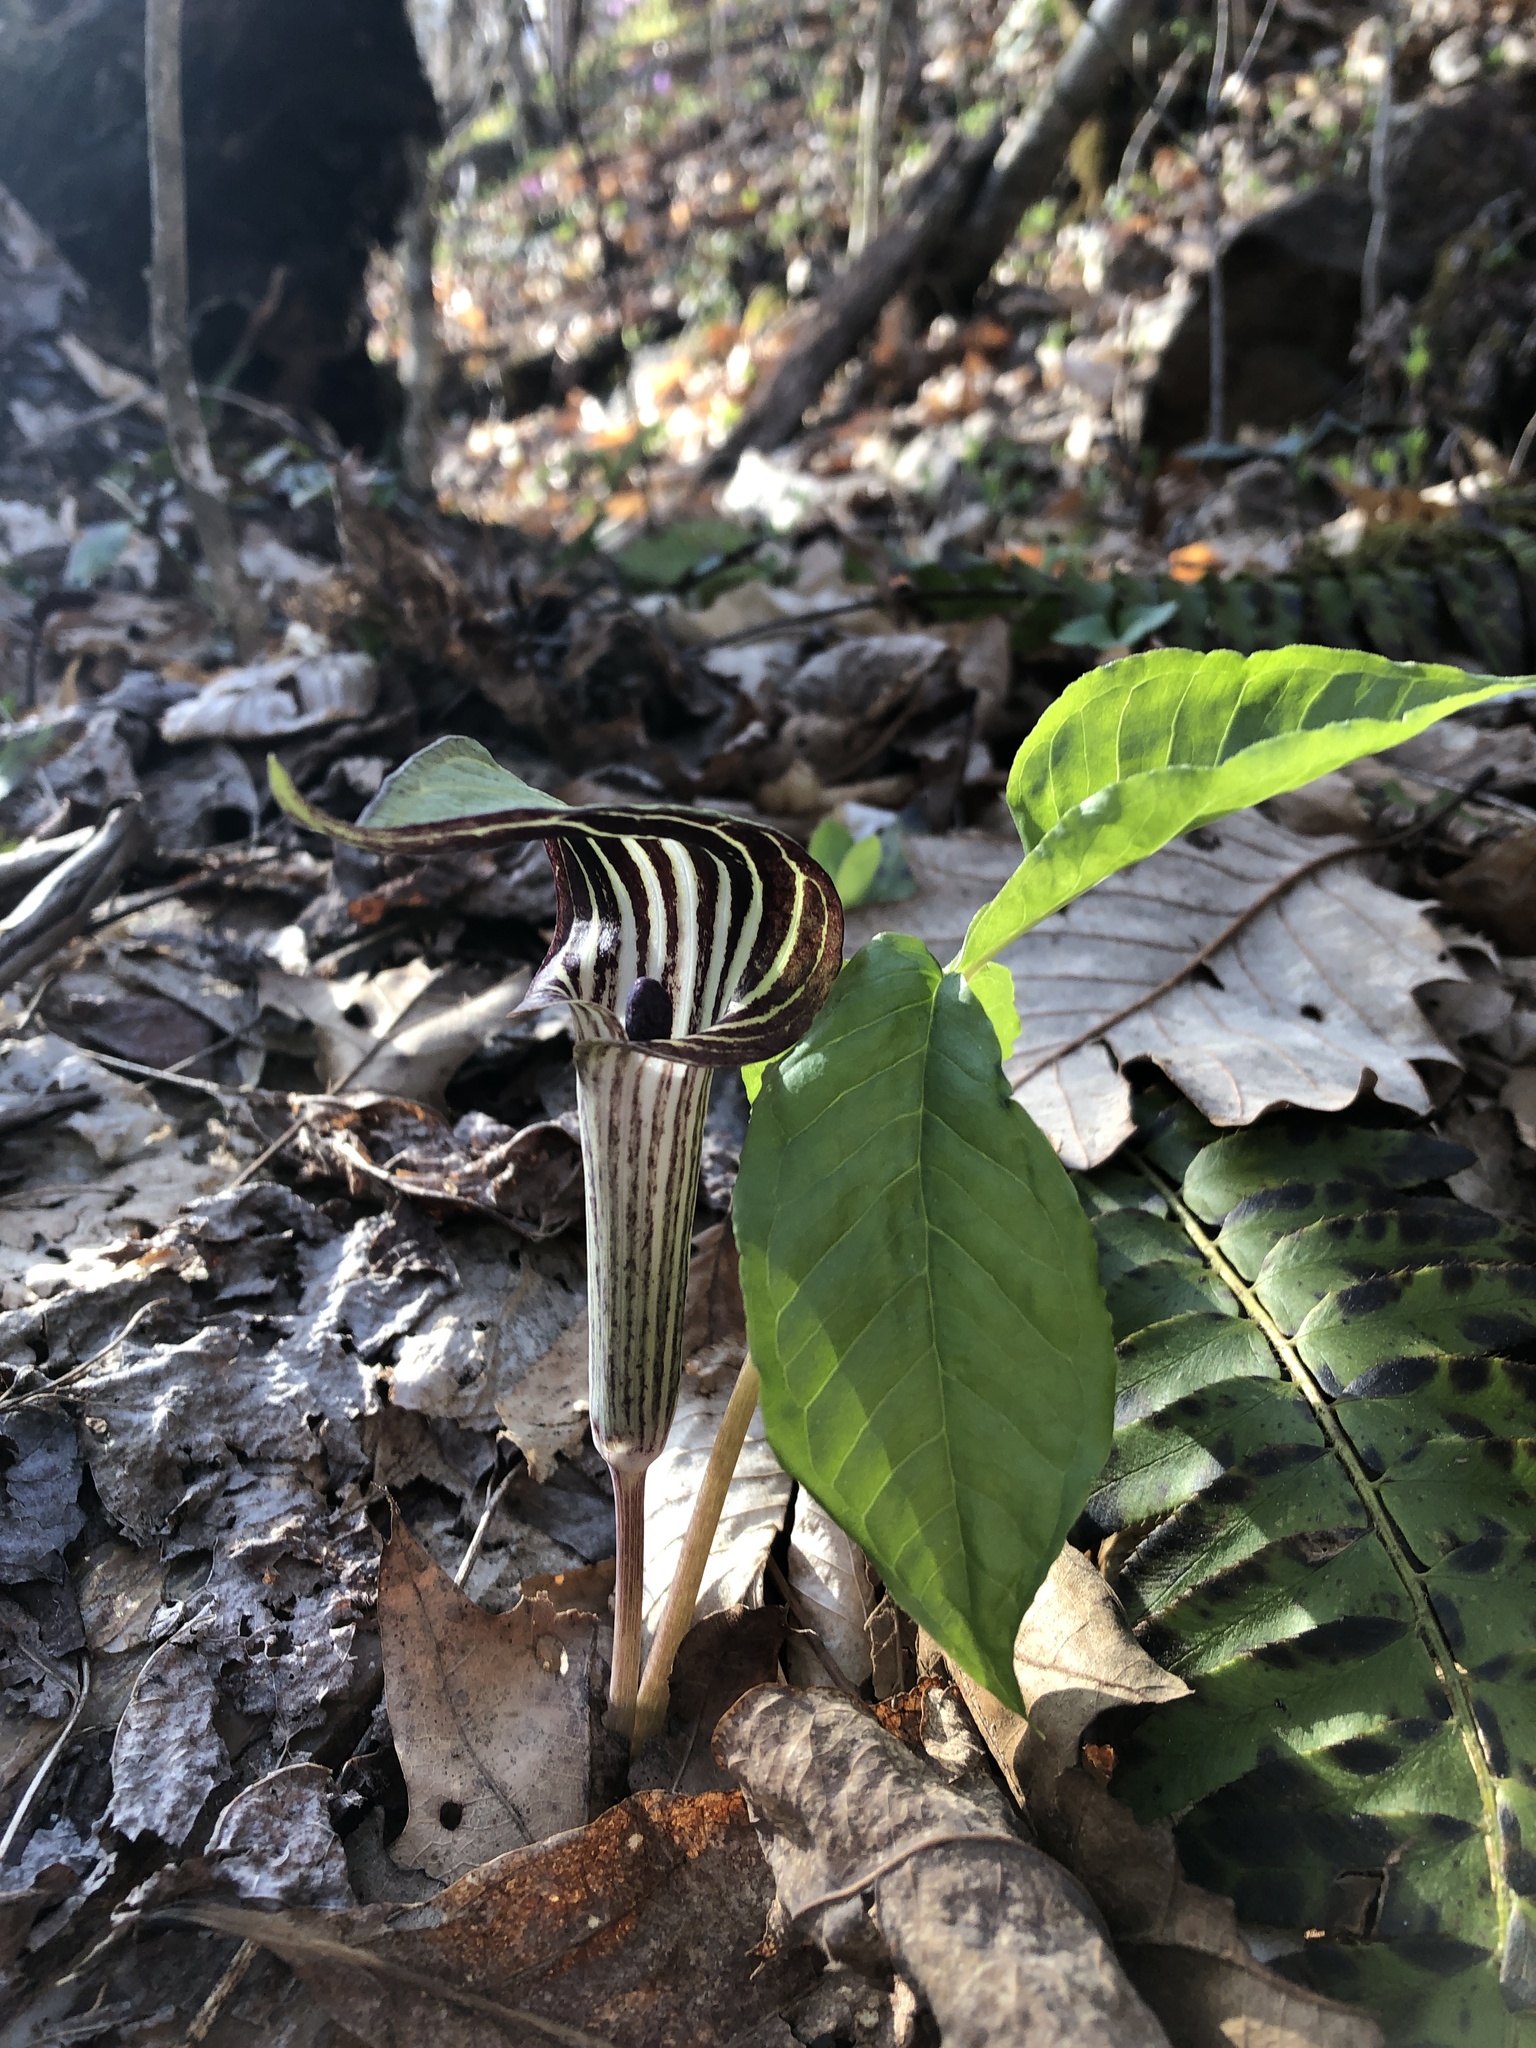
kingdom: Plantae
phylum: Tracheophyta
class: Liliopsida
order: Alismatales
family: Araceae
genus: Arisaema
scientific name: Arisaema triphyllum
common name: Jack-in-the-pulpit
